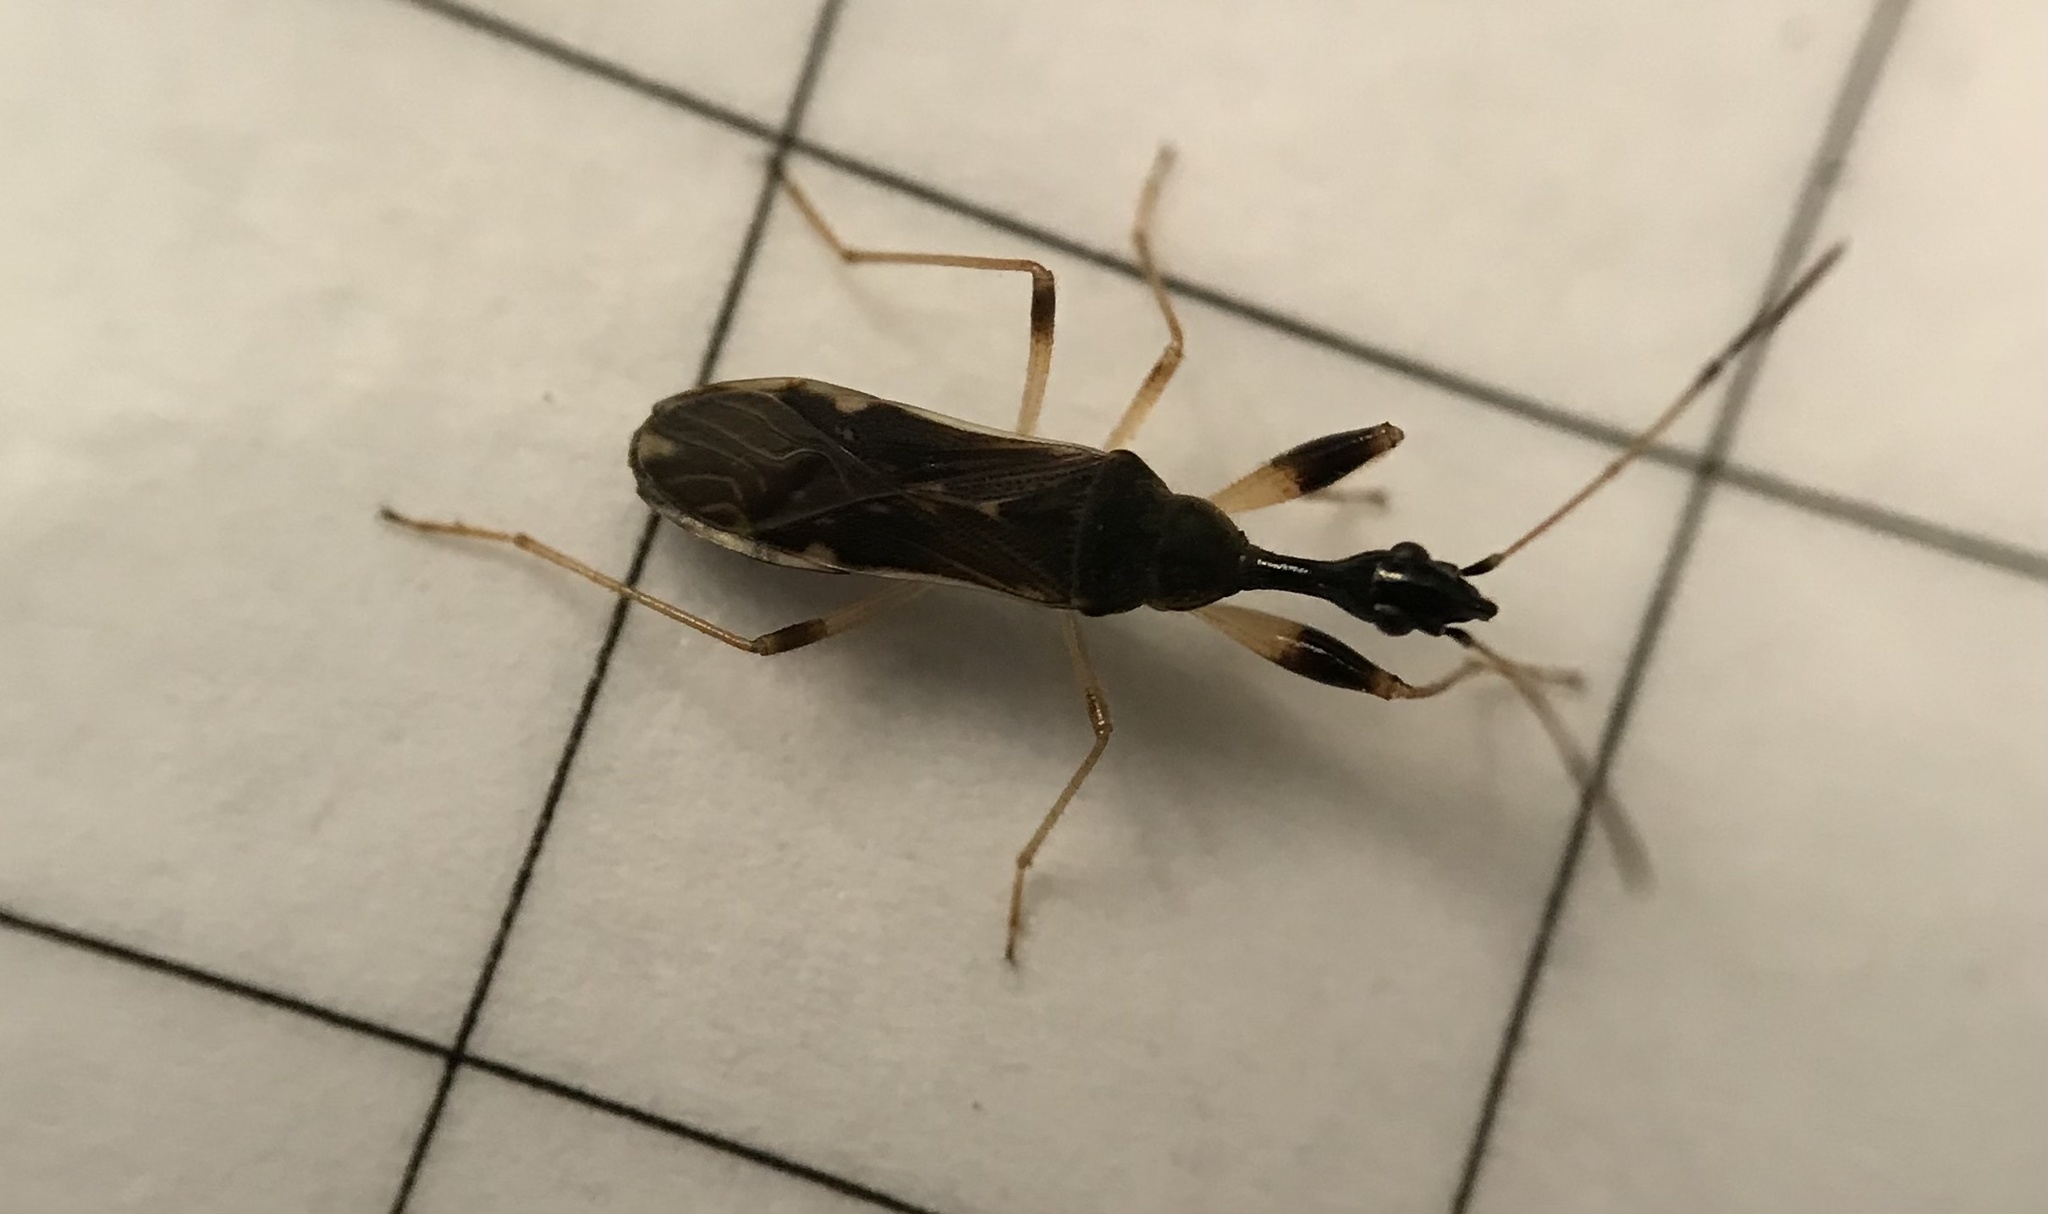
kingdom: Animalia
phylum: Arthropoda
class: Insecta
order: Hemiptera
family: Rhyparochromidae
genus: Myodocha
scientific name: Myodocha serripes
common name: Long-necked seed bug
